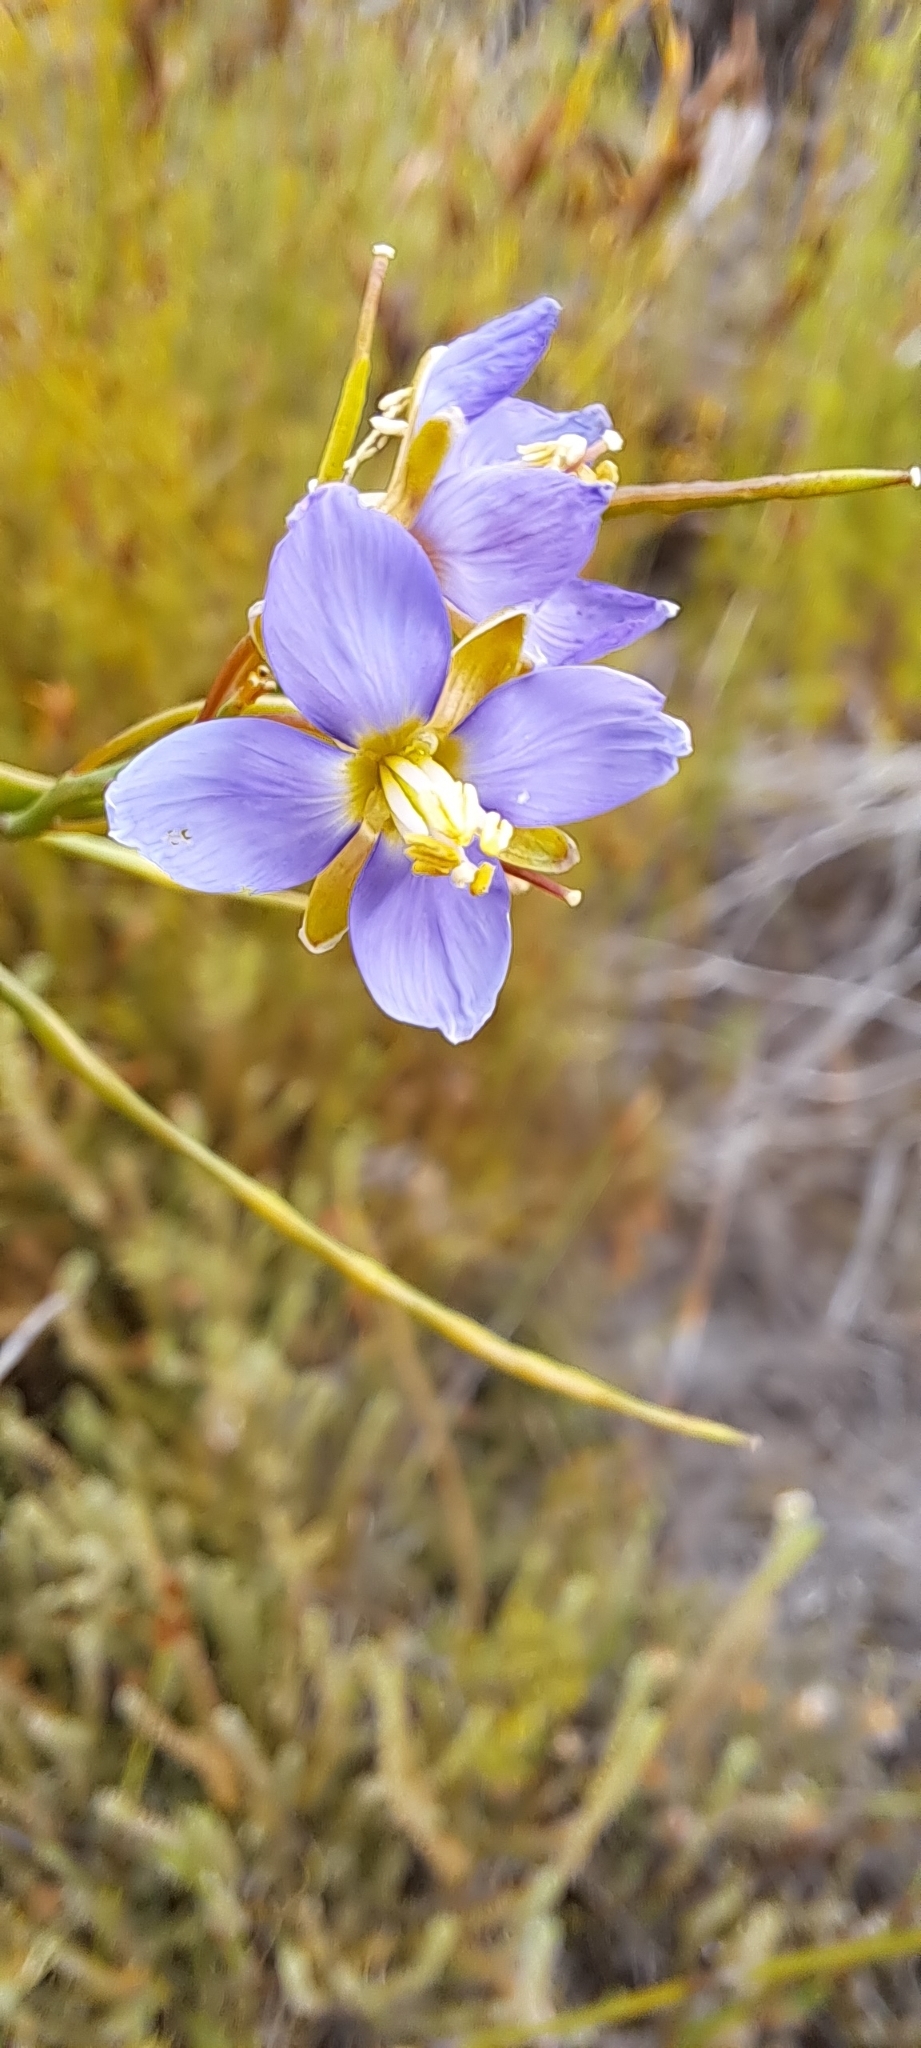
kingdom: Plantae
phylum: Tracheophyta
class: Magnoliopsida
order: Brassicales
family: Brassicaceae
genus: Heliophila
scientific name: Heliophila linearis
